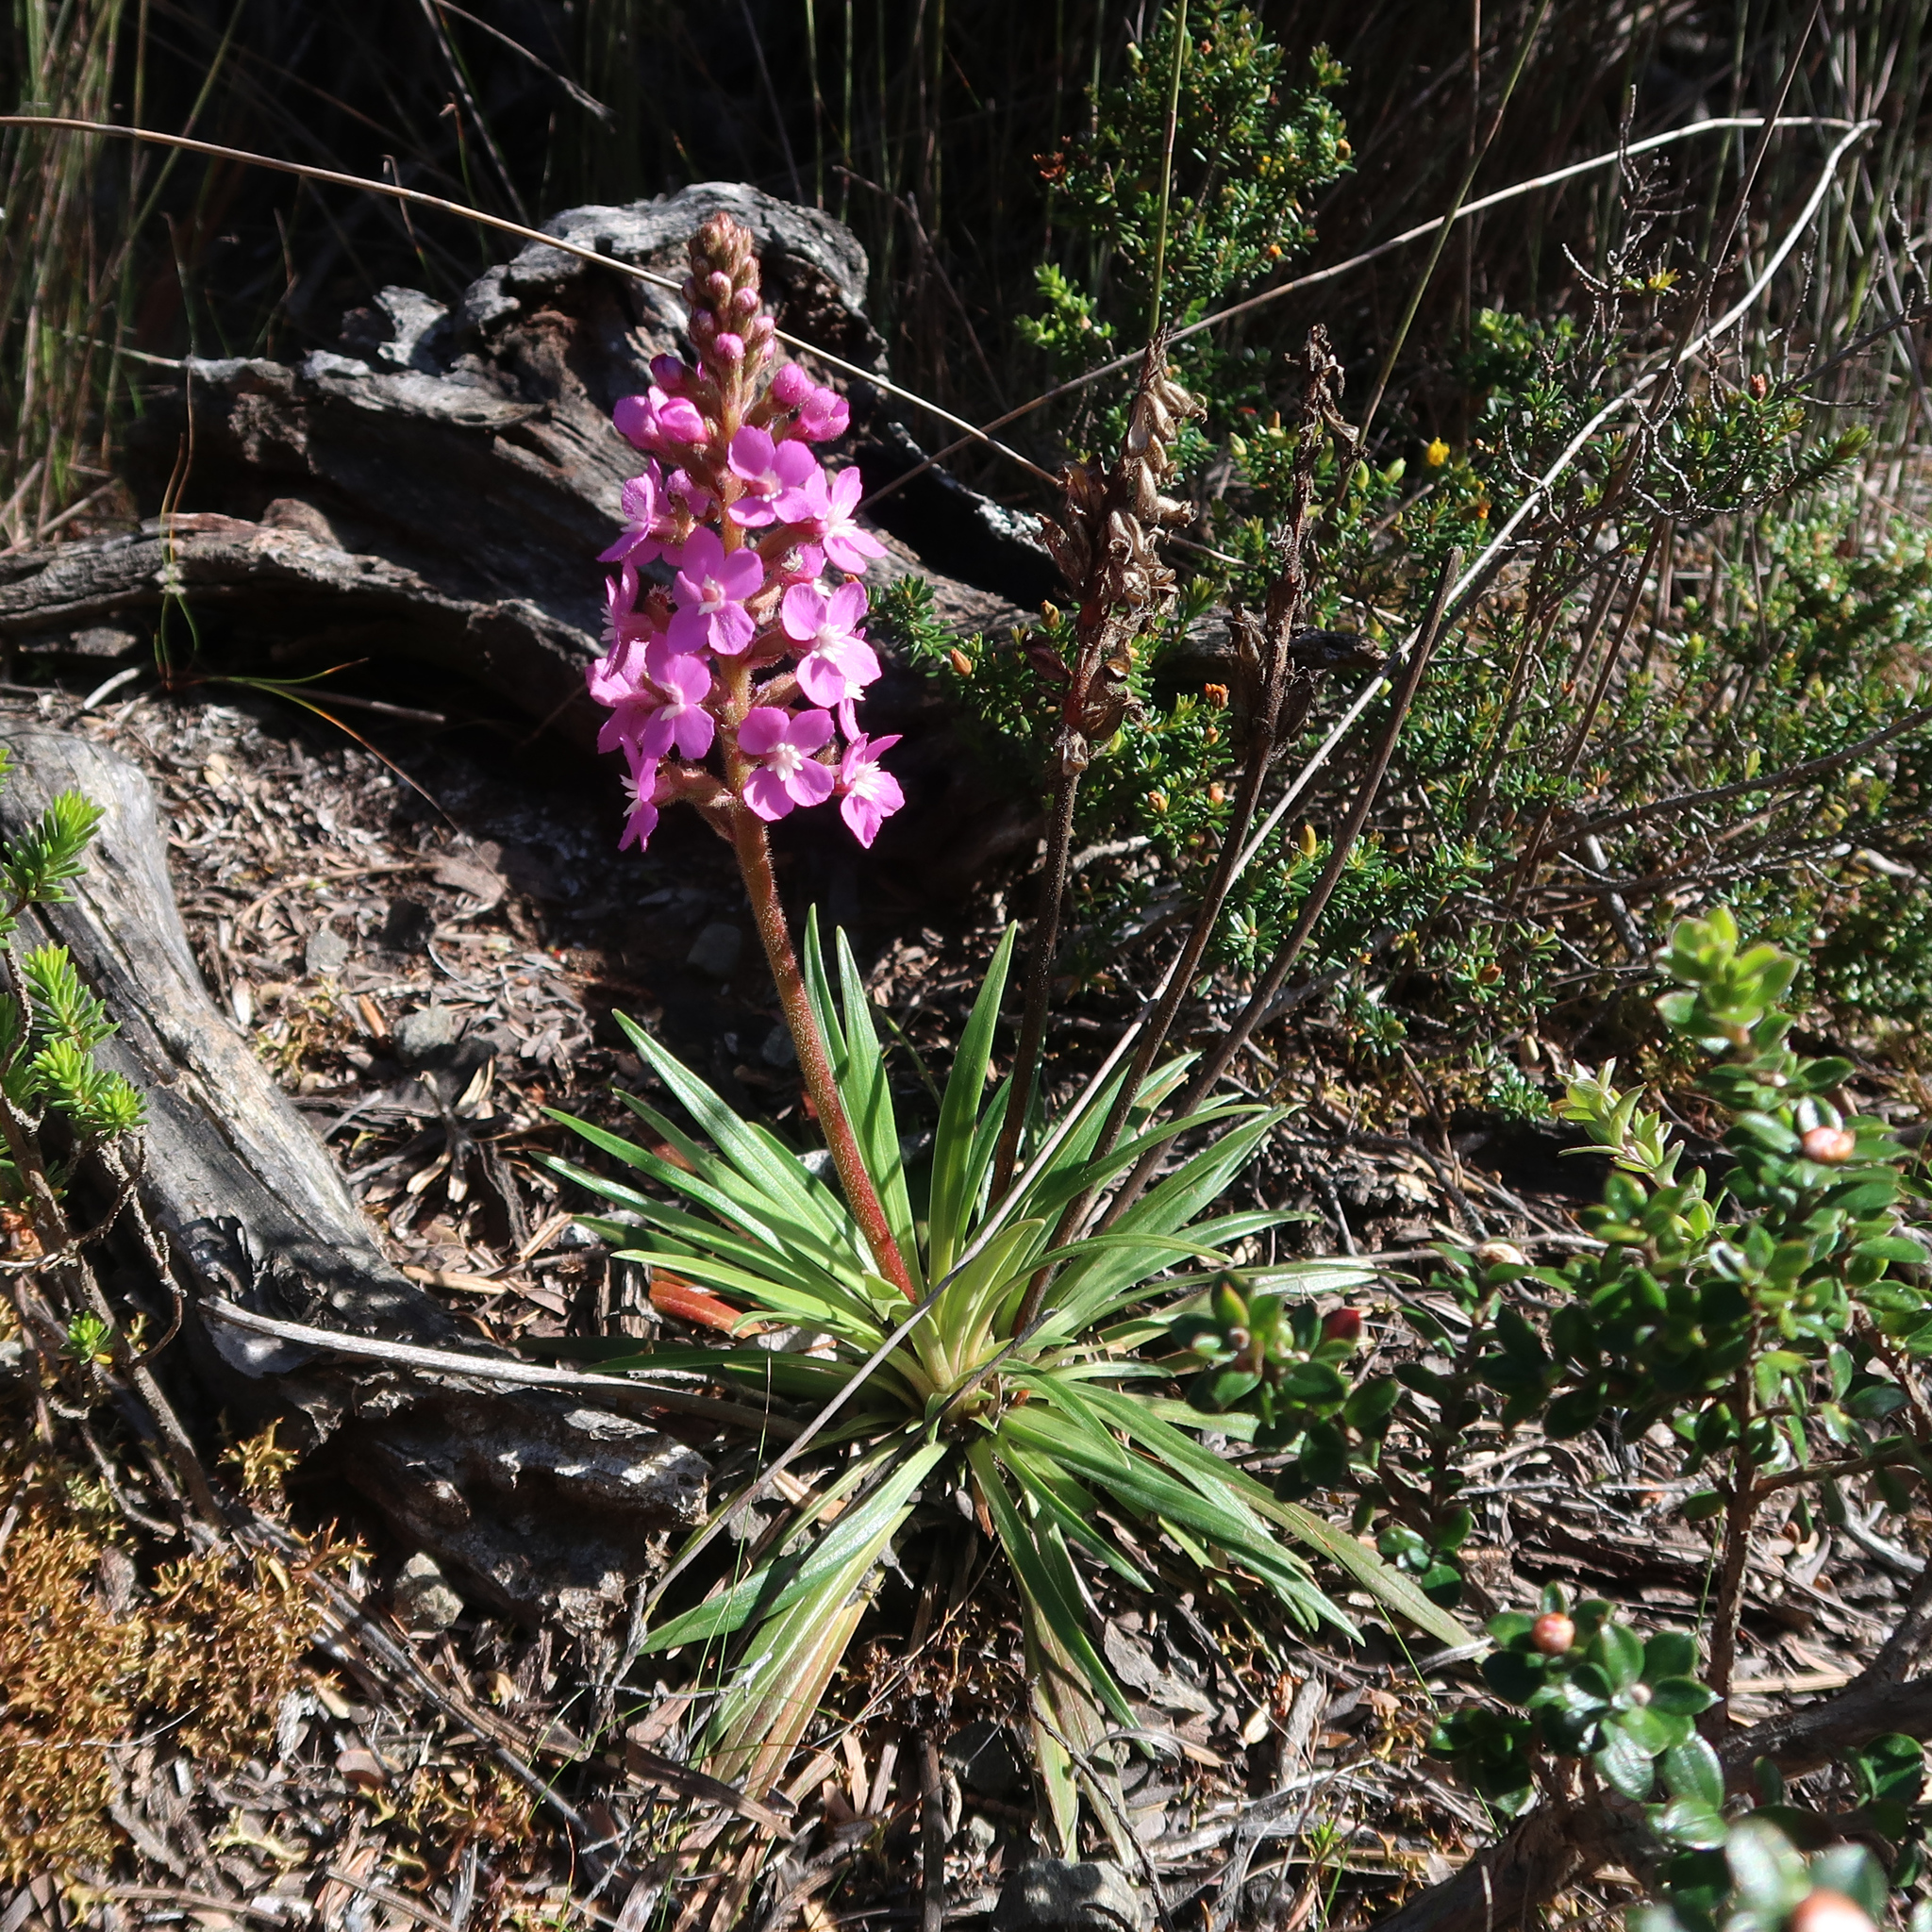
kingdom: Plantae
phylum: Tracheophyta
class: Magnoliopsida
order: Asterales
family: Stylidiaceae
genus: Stylidium
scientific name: Stylidium armeria
